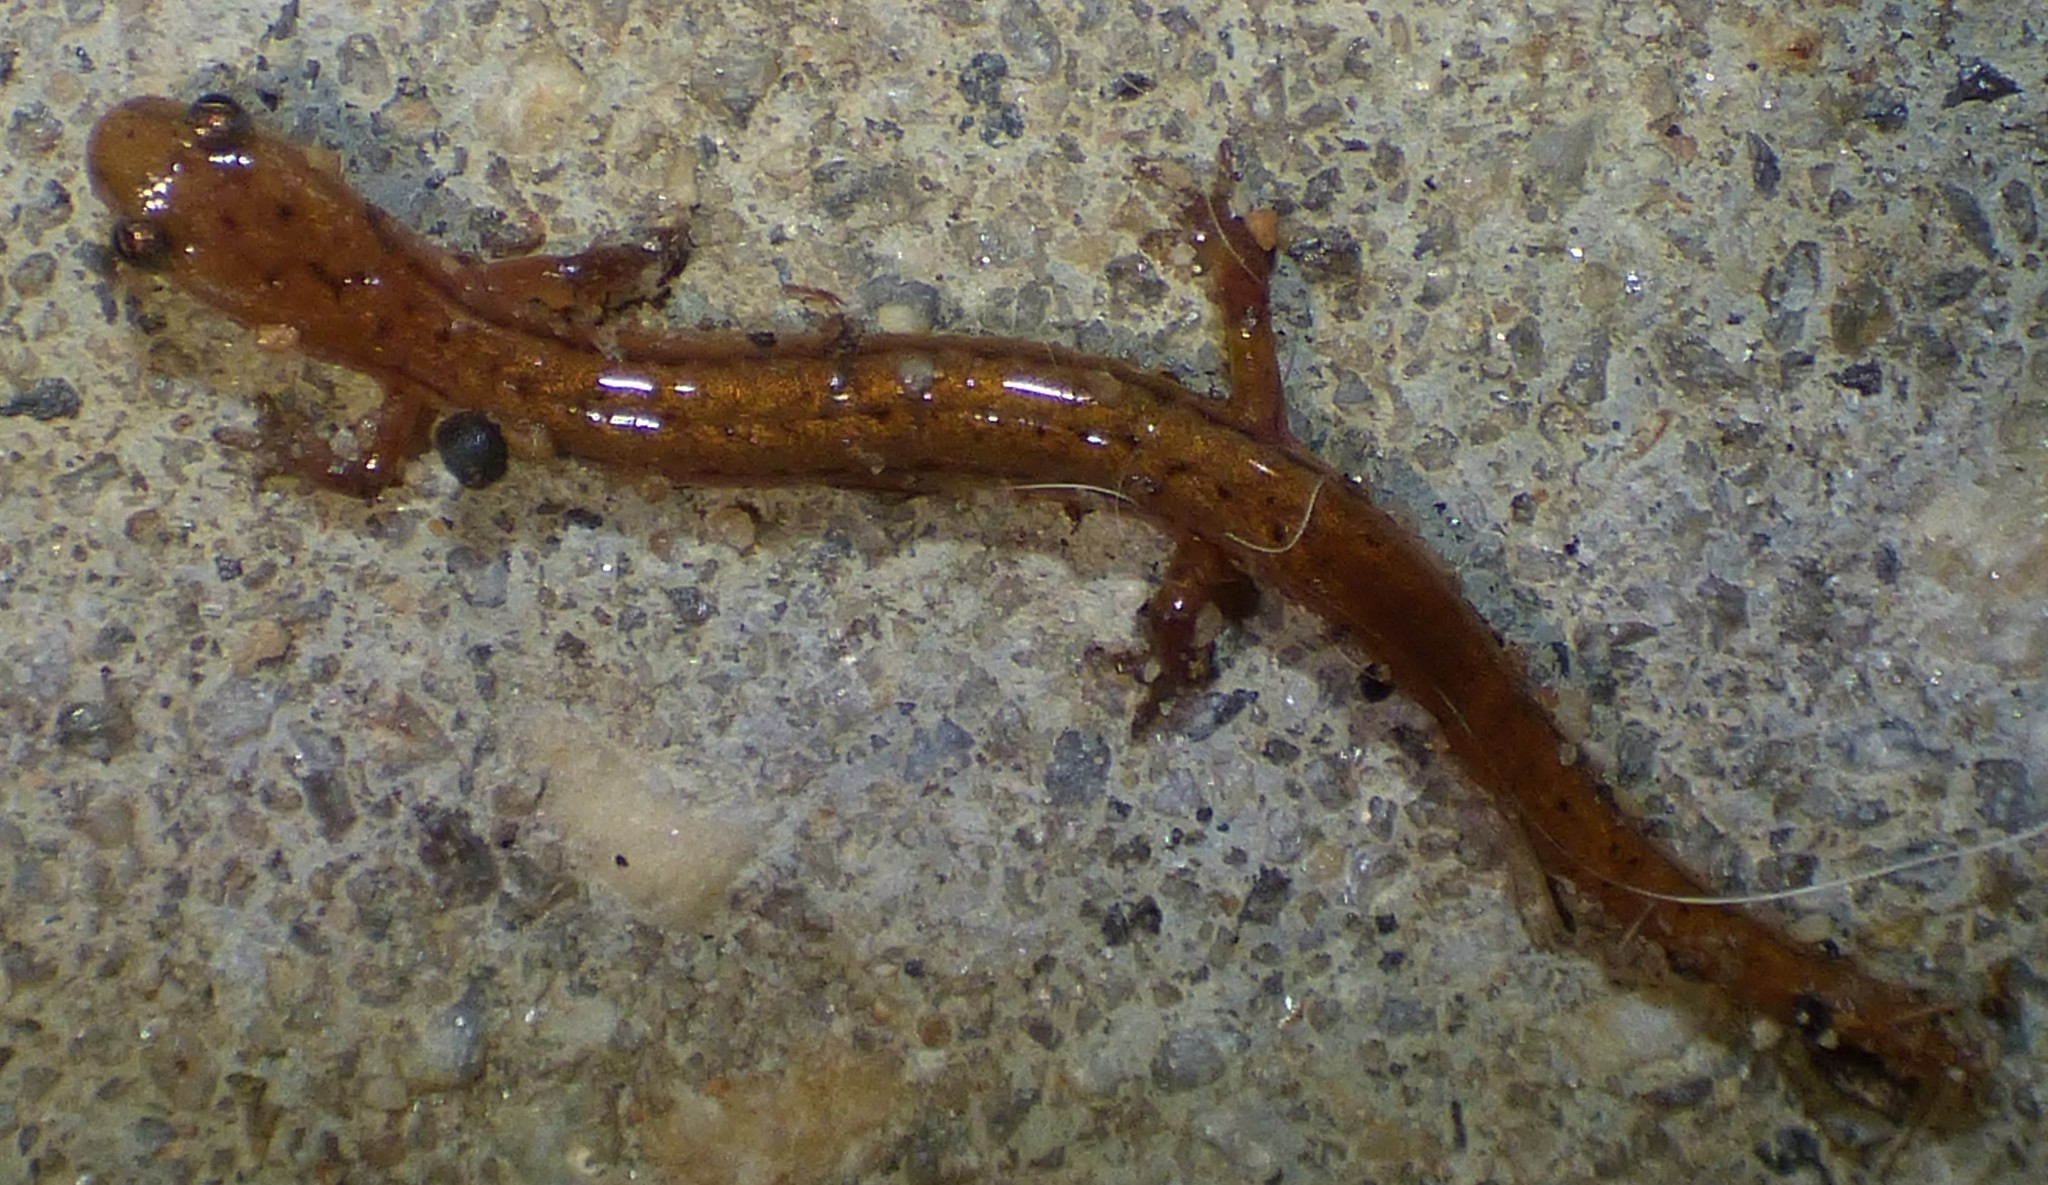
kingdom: Animalia
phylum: Chordata
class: Amphibia
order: Caudata
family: Plethodontidae
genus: Eurycea
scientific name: Eurycea chamberlaini
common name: Chamberlain's dwarf salamander
